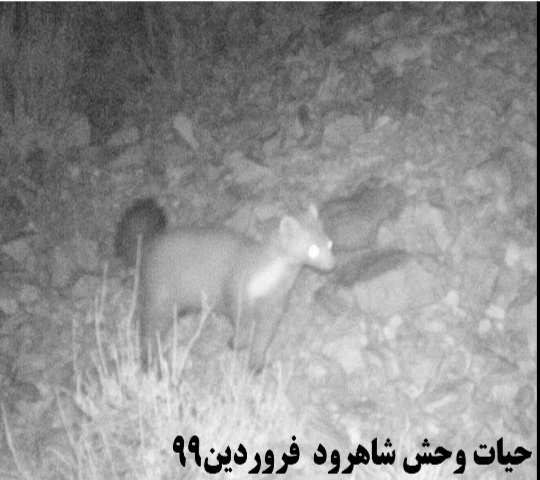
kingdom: Animalia
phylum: Chordata
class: Mammalia
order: Carnivora
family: Mustelidae
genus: Martes
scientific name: Martes foina
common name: Beech marten
